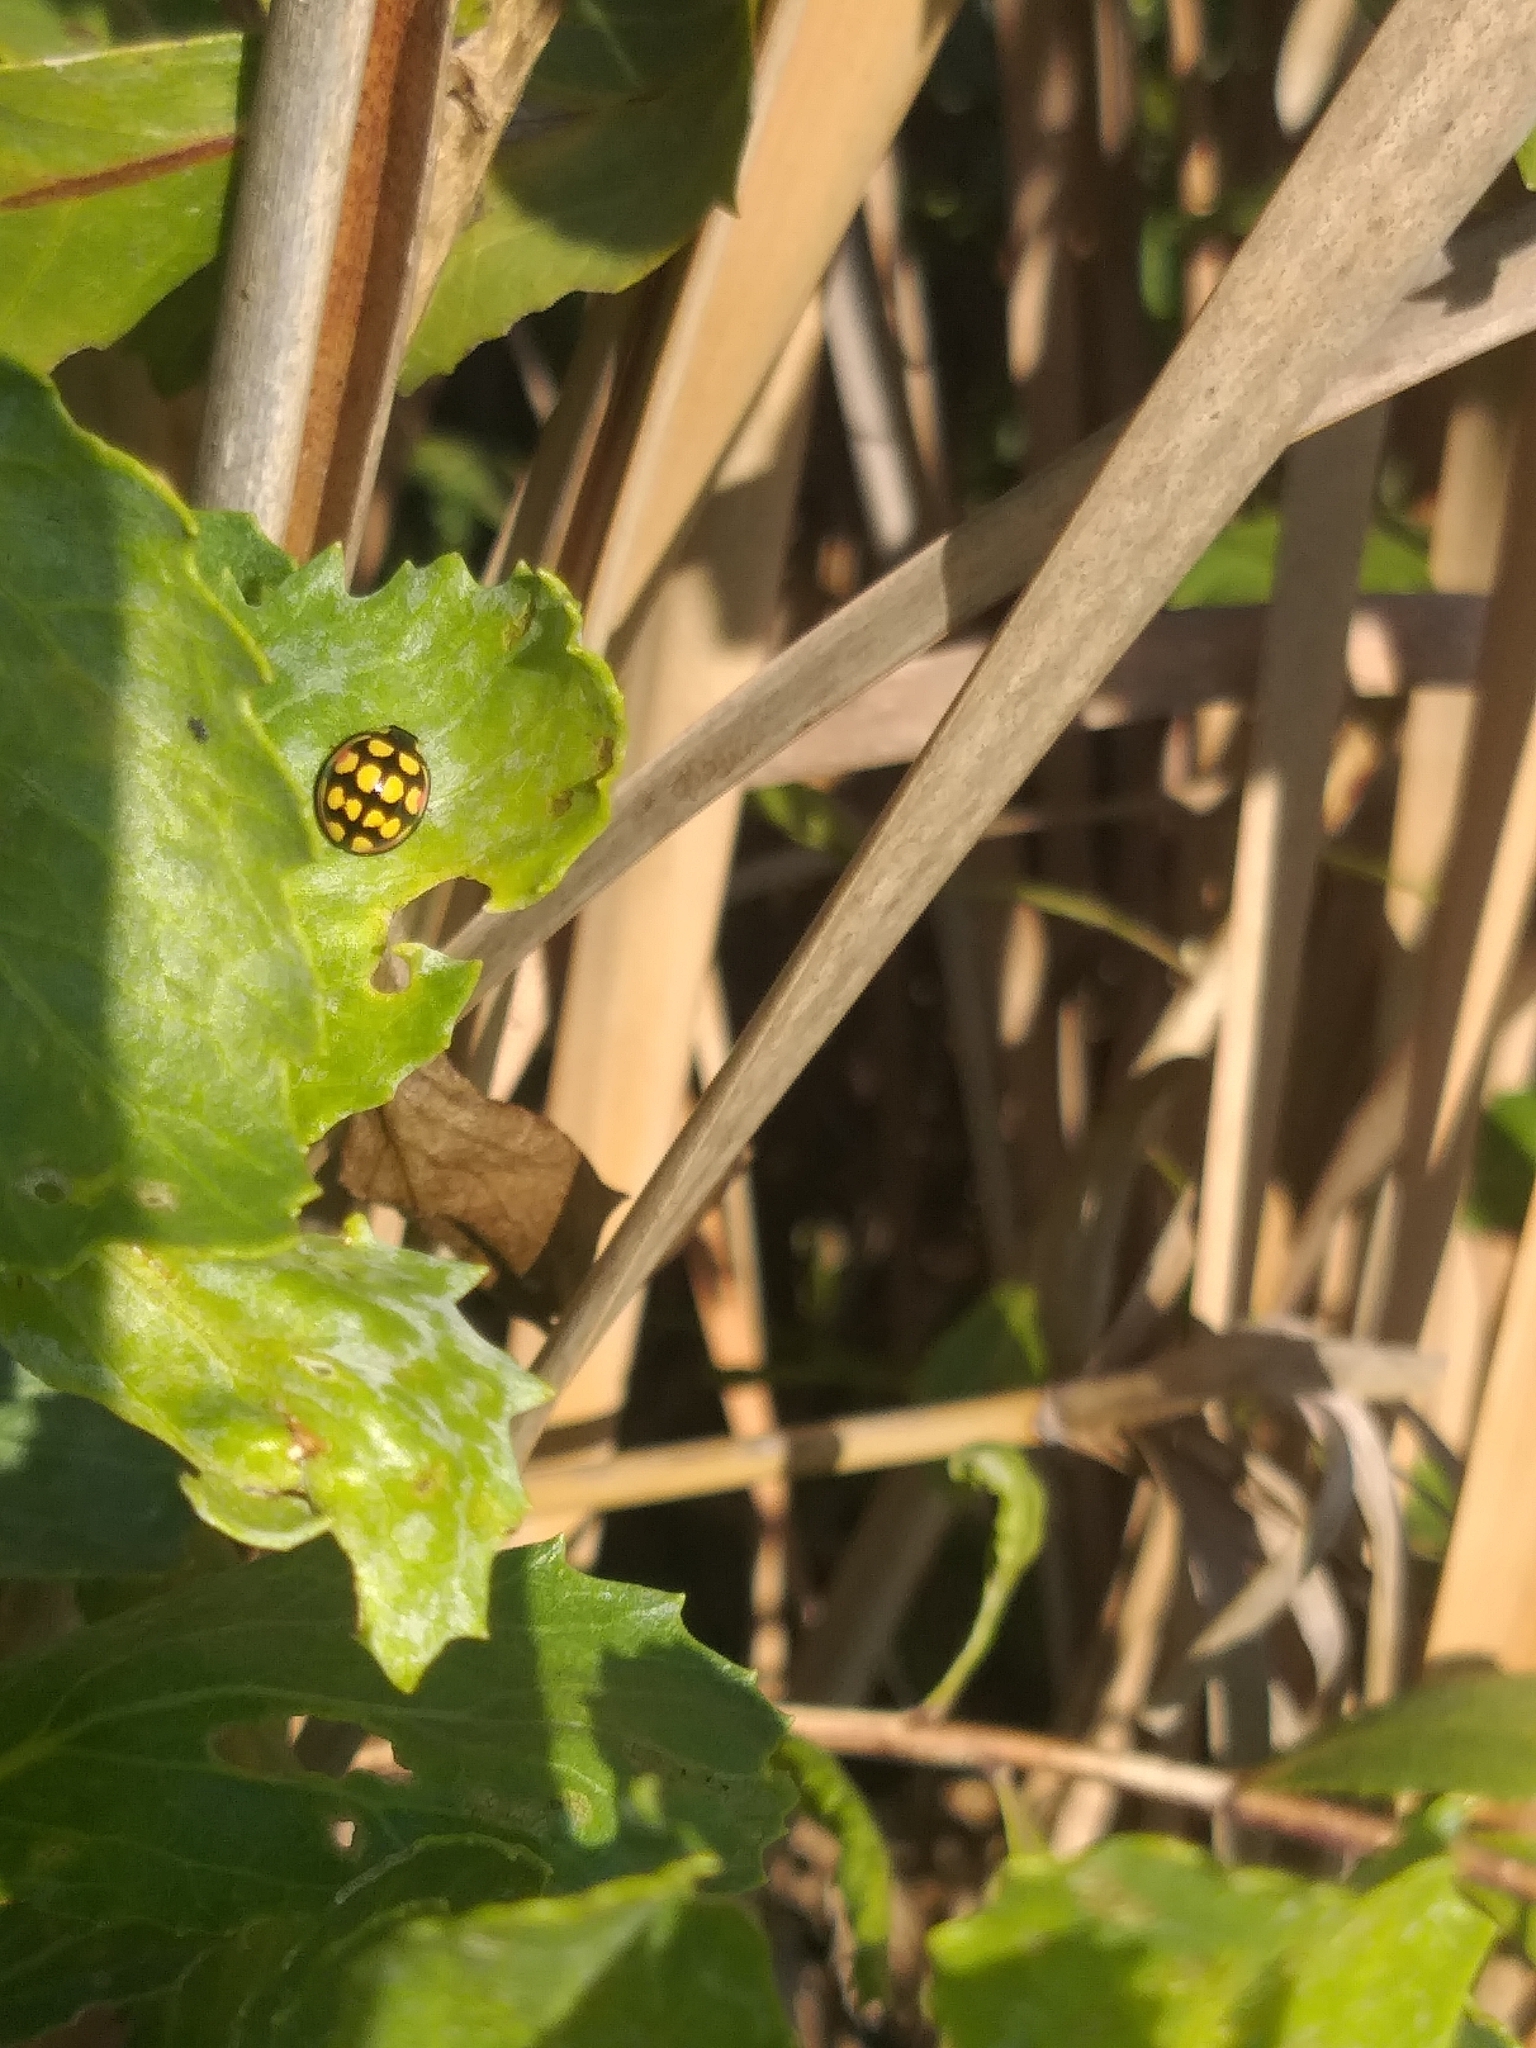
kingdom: Animalia
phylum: Arthropoda
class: Insecta
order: Coleoptera
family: Coccinellidae
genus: Cheilomenes
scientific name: Cheilomenes sulphurea
